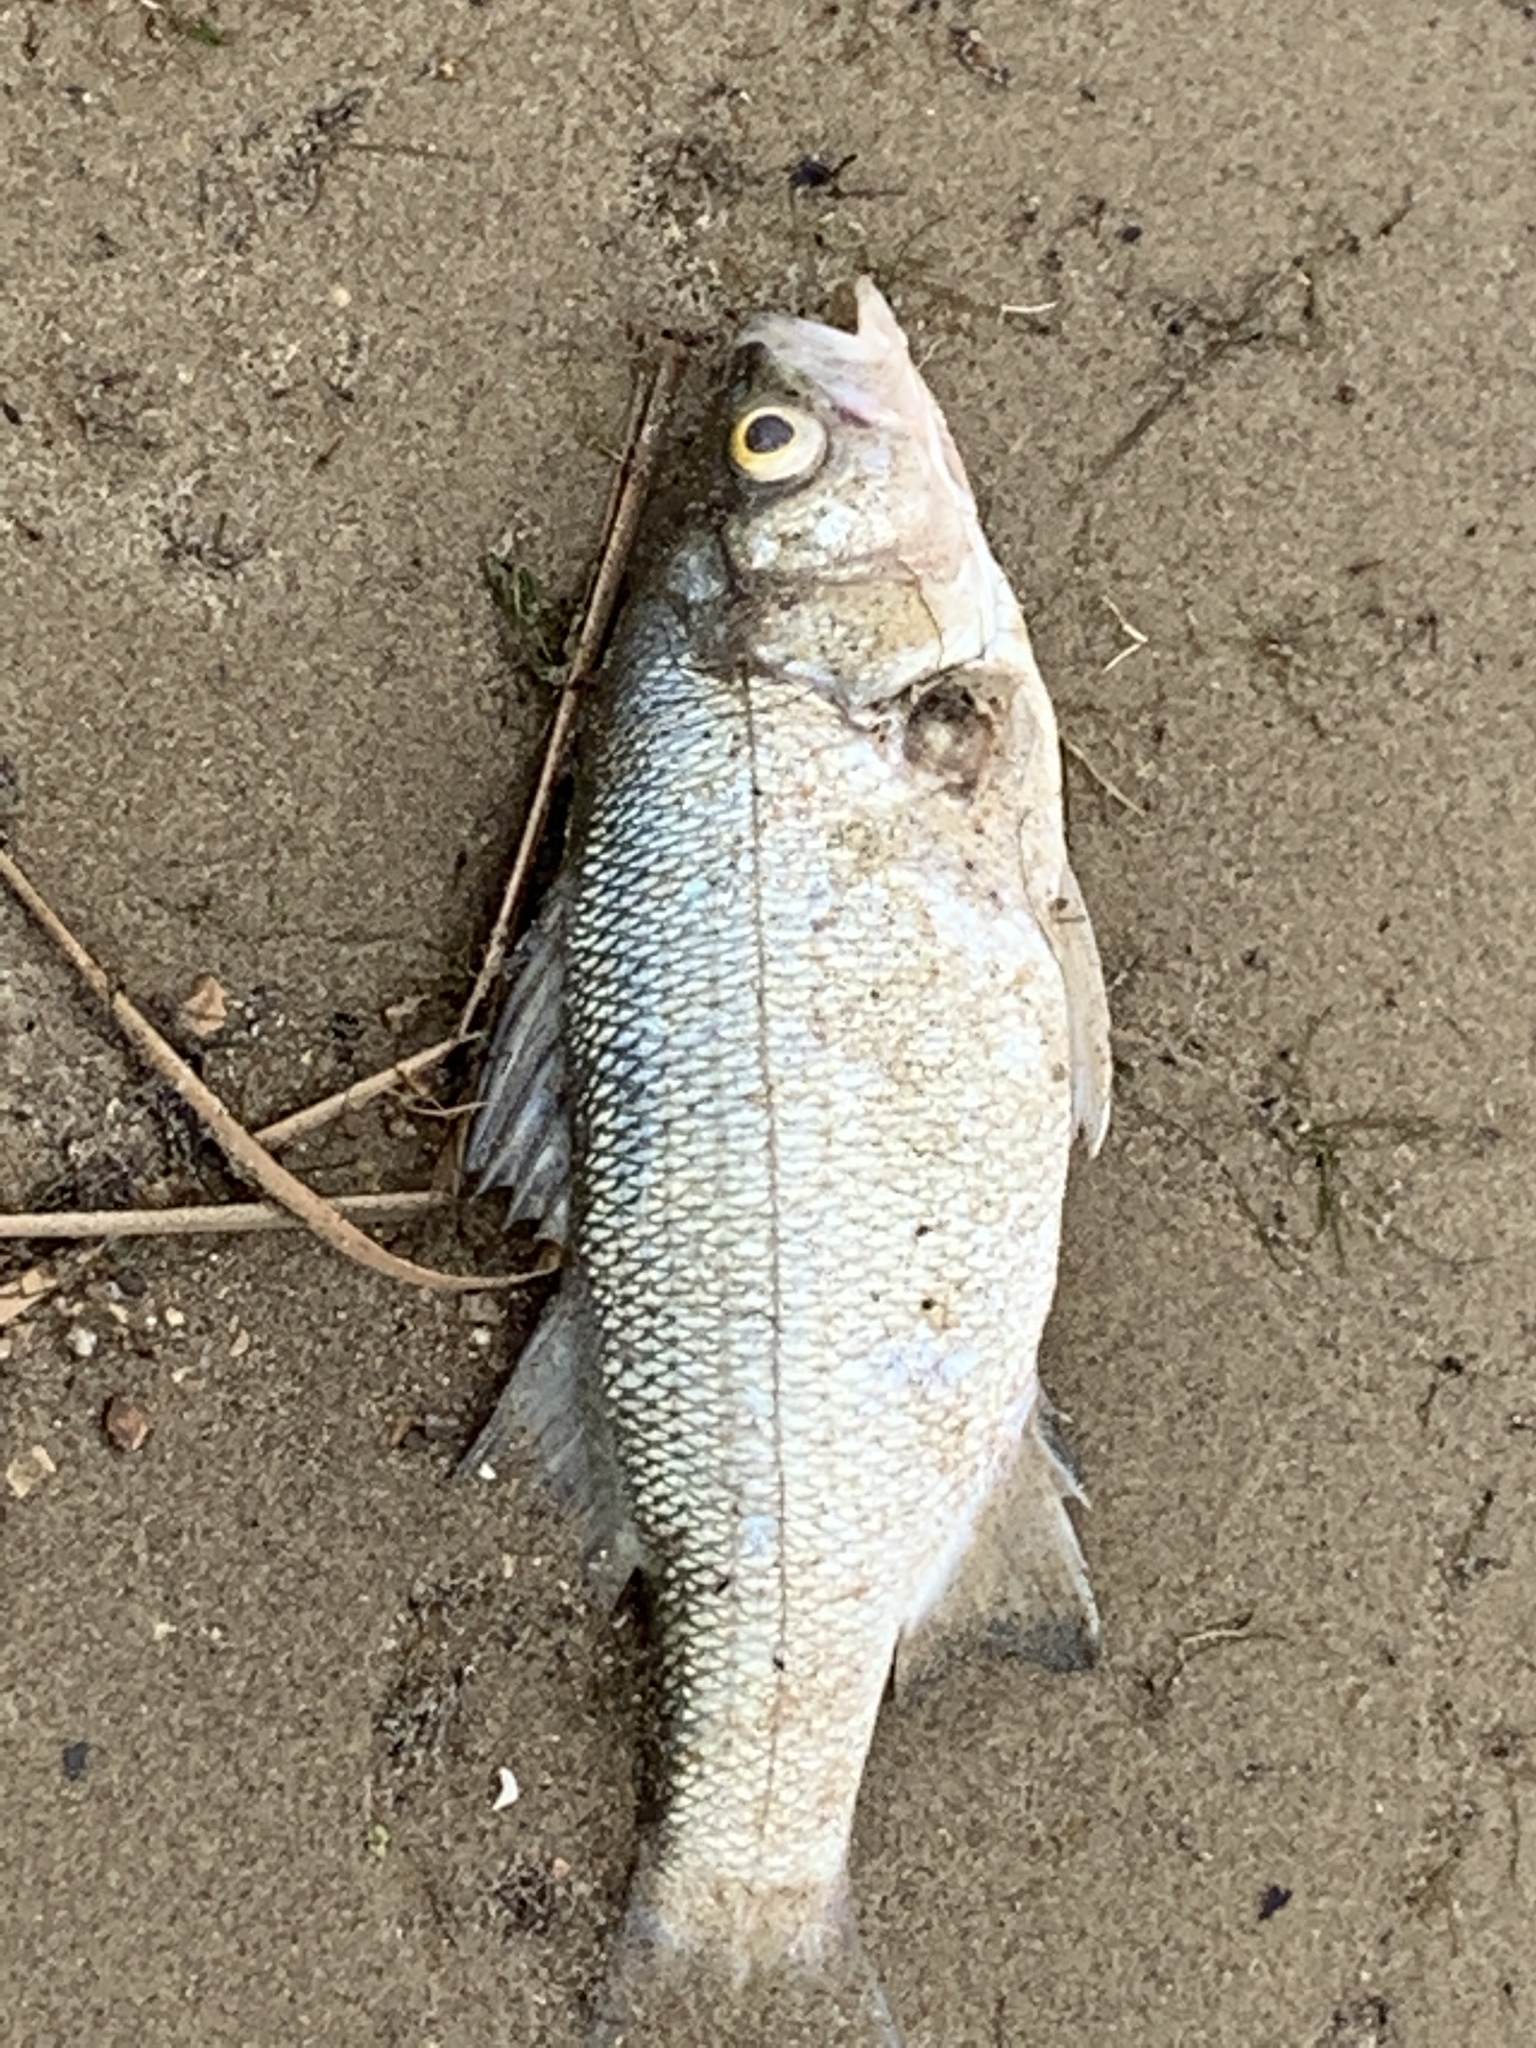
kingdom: Animalia
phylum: Chordata
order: Perciformes
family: Moronidae
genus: Morone
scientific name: Morone chrysops
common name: White bass
